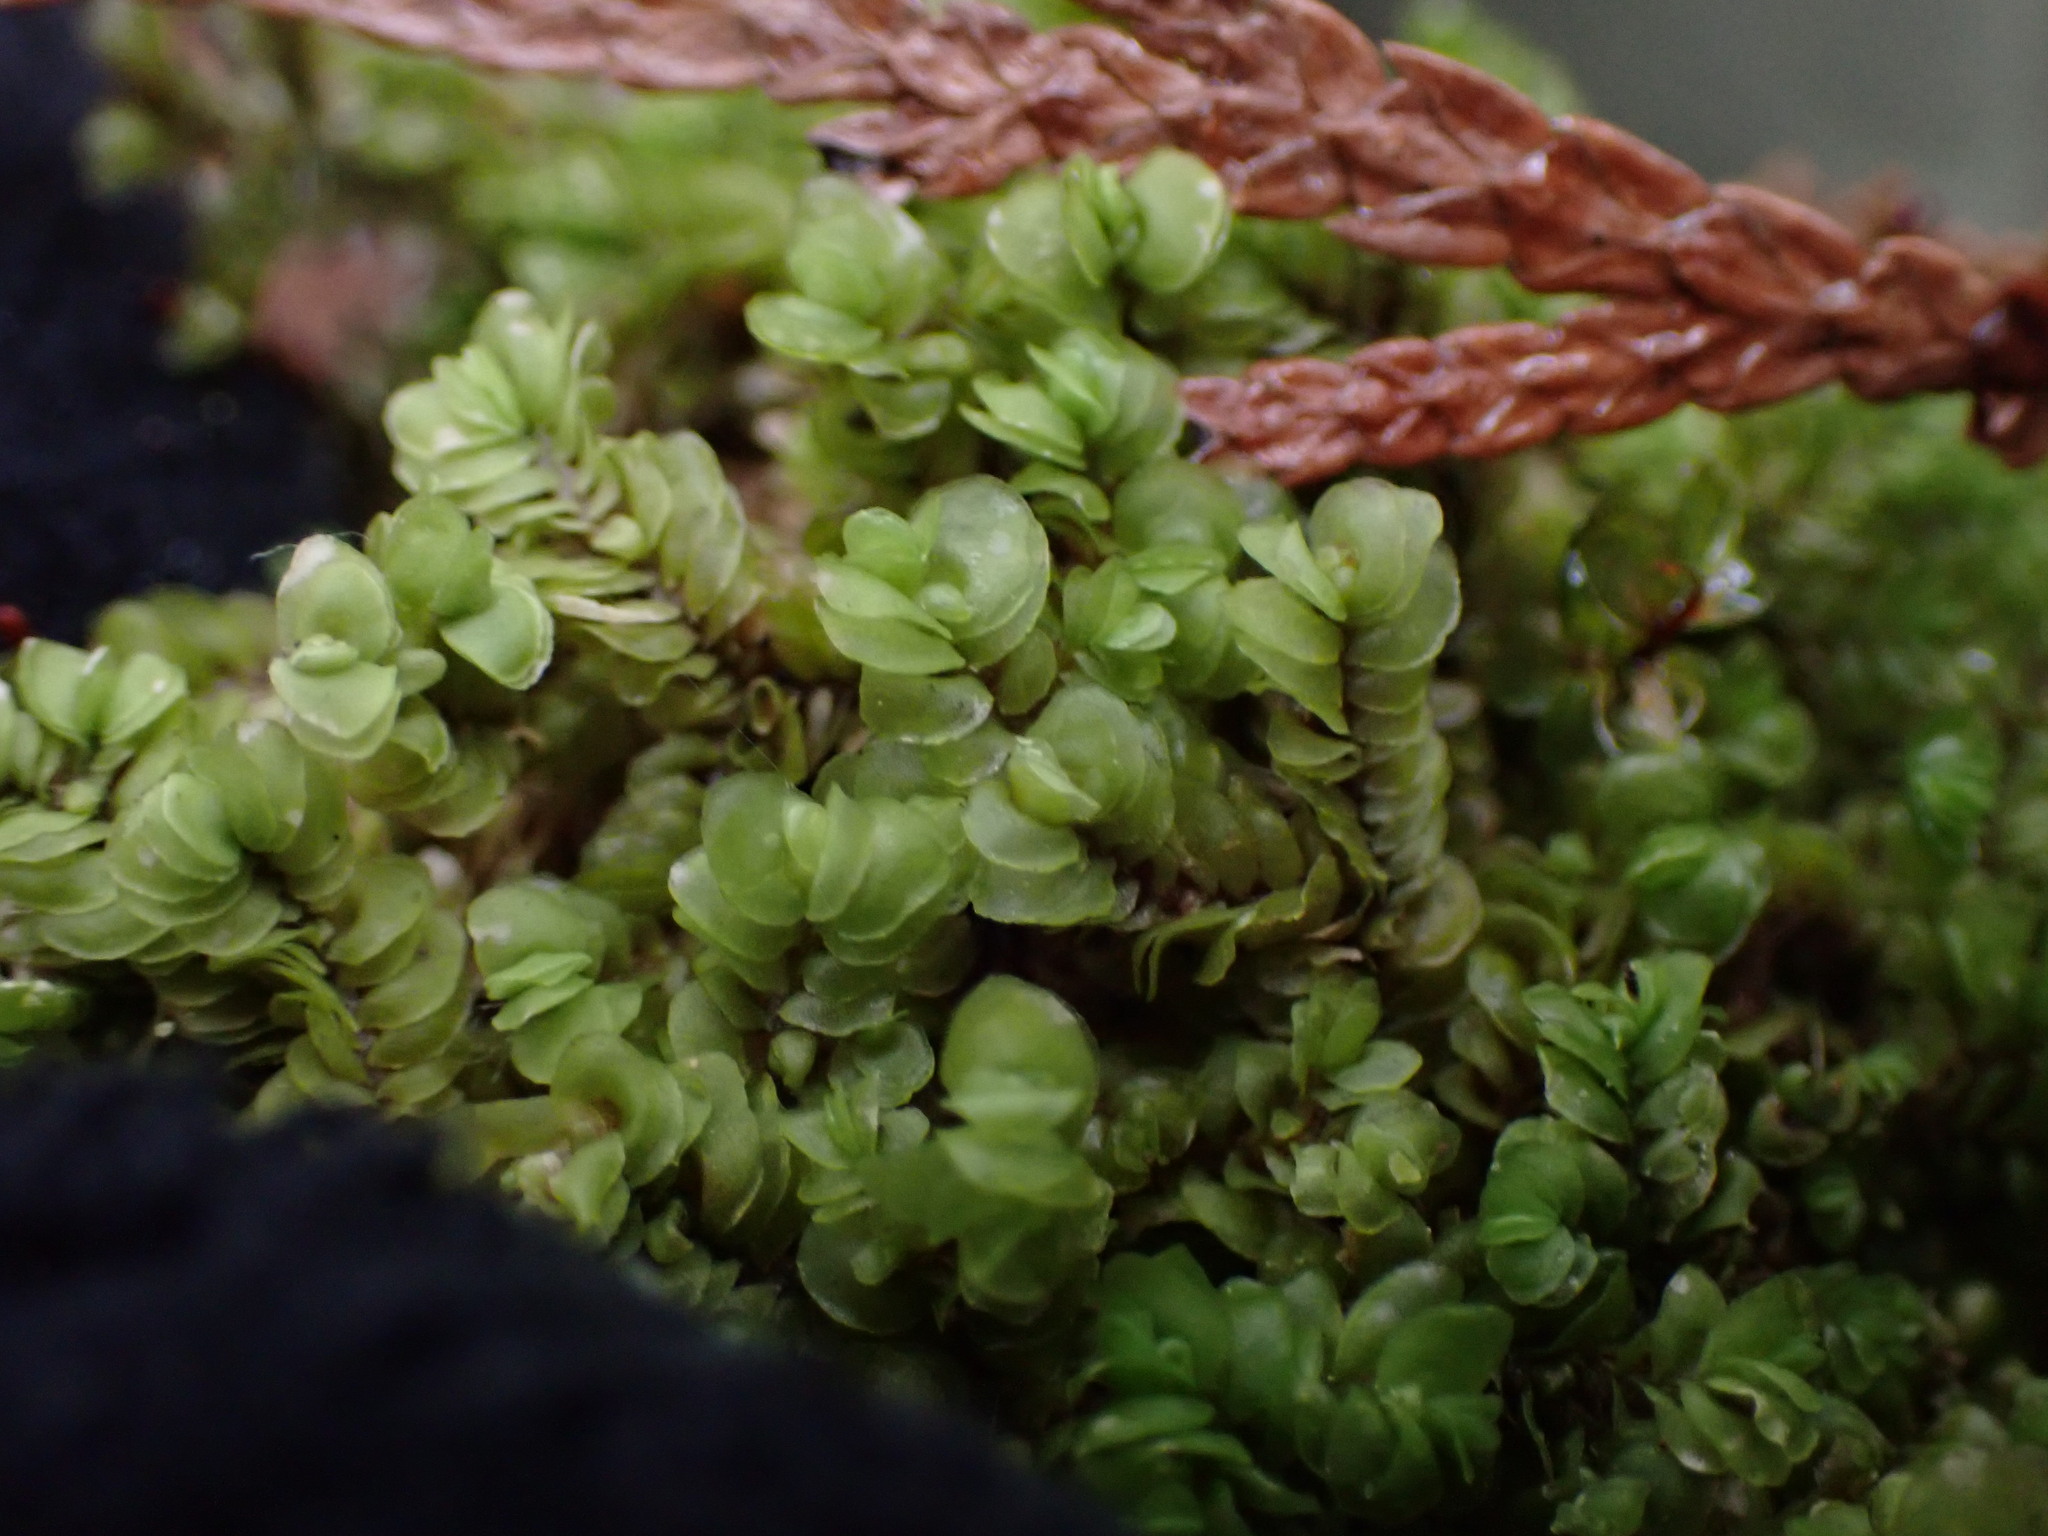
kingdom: Plantae
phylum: Marchantiophyta
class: Jungermanniopsida
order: Jungermanniales
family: Myliaceae
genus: Mylia
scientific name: Mylia taylorii
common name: Taylor s flapwort
